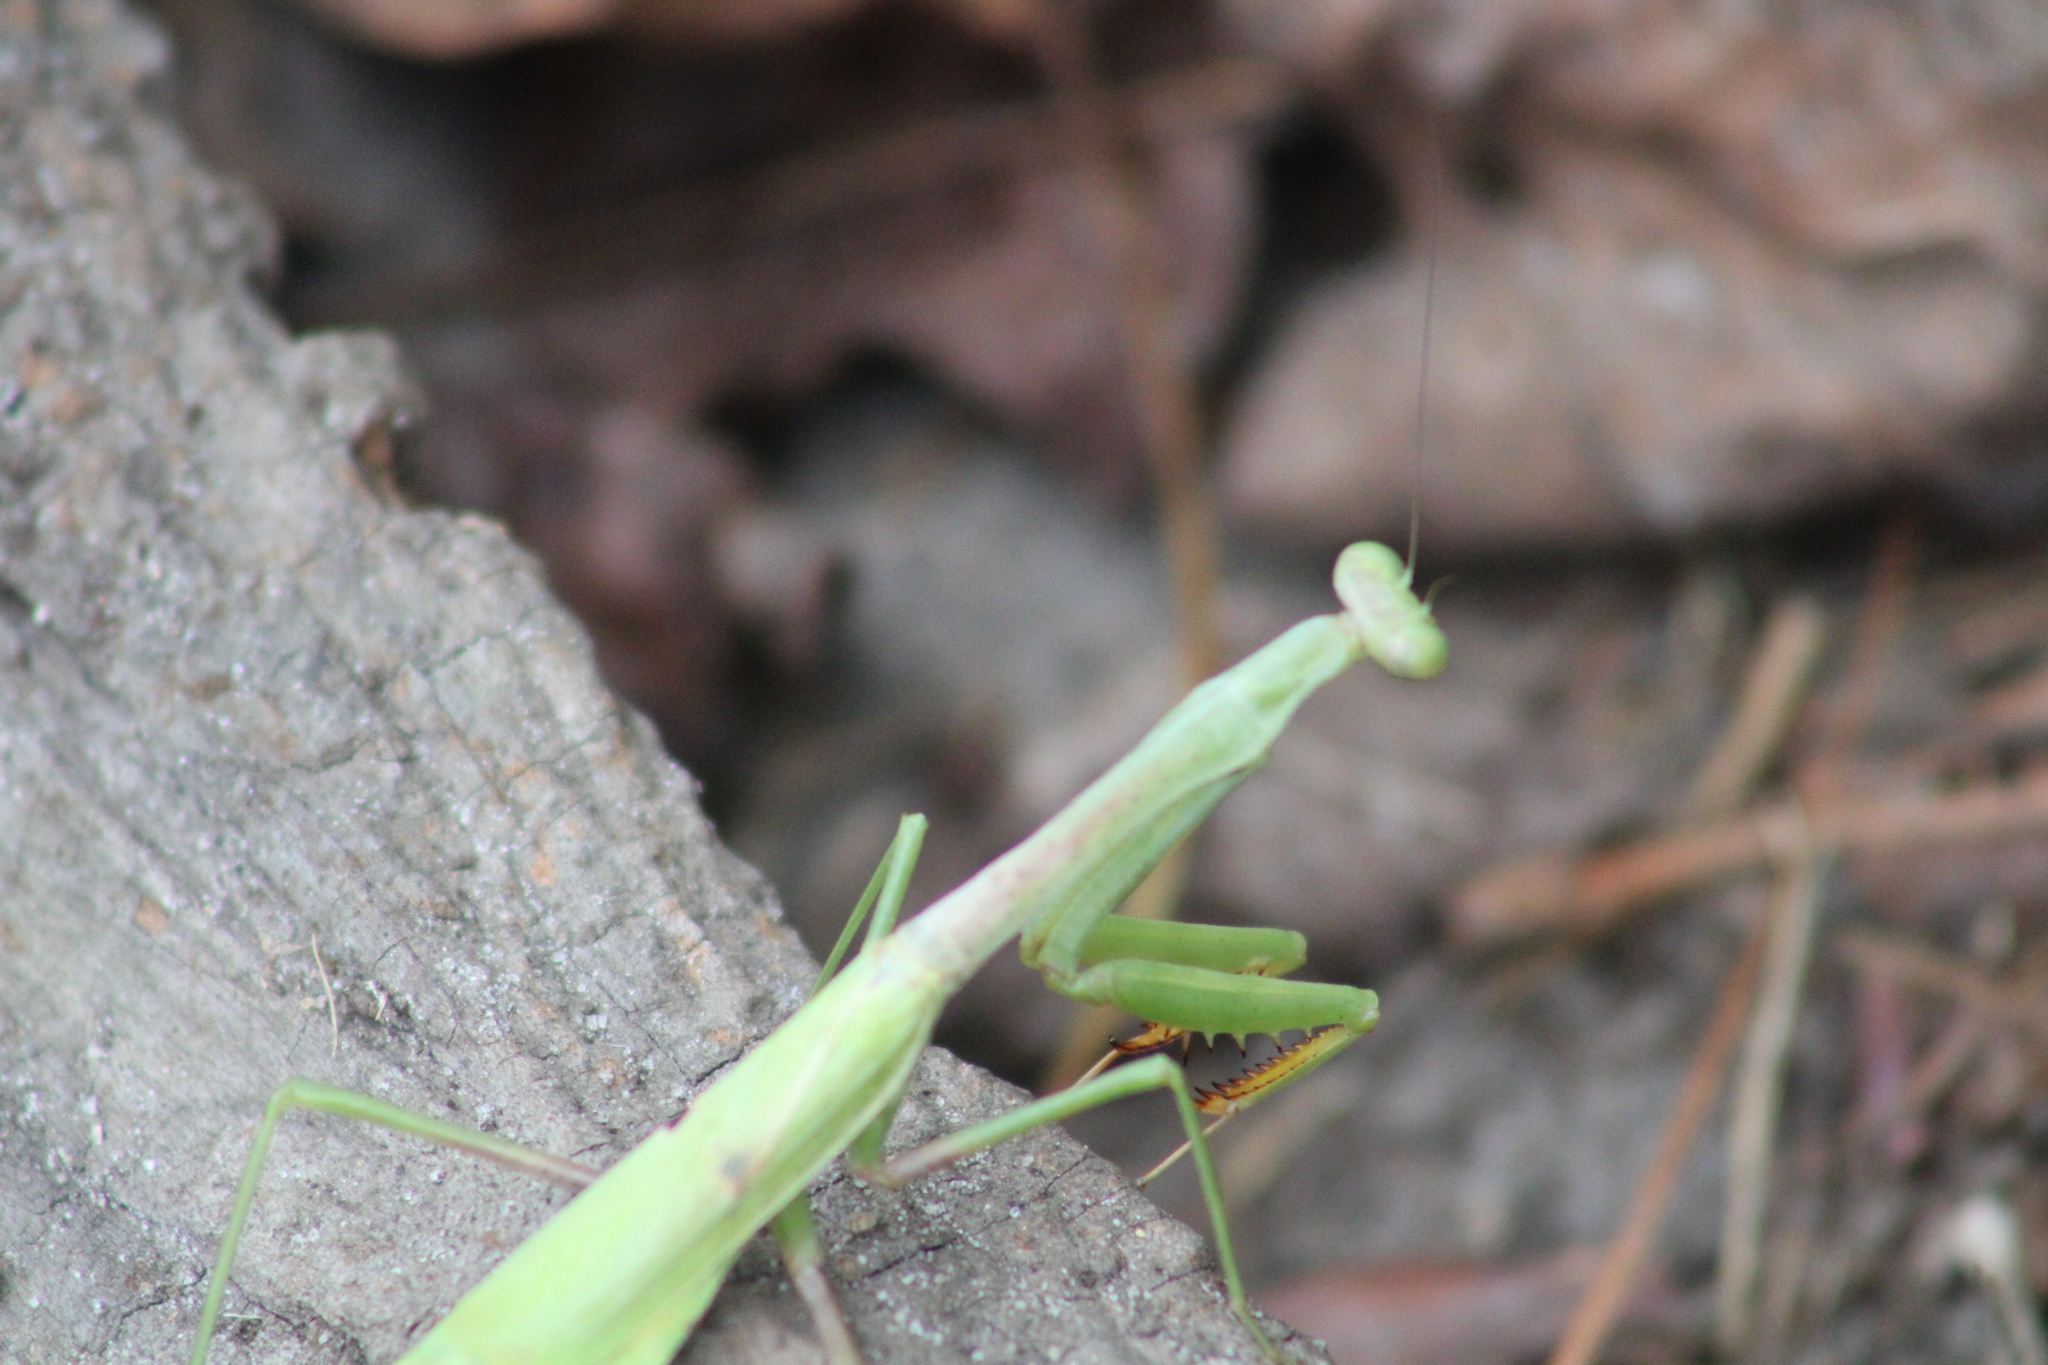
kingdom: Animalia
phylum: Arthropoda
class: Insecta
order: Mantodea
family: Mantidae
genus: Stagmomantis
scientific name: Stagmomantis carolina
